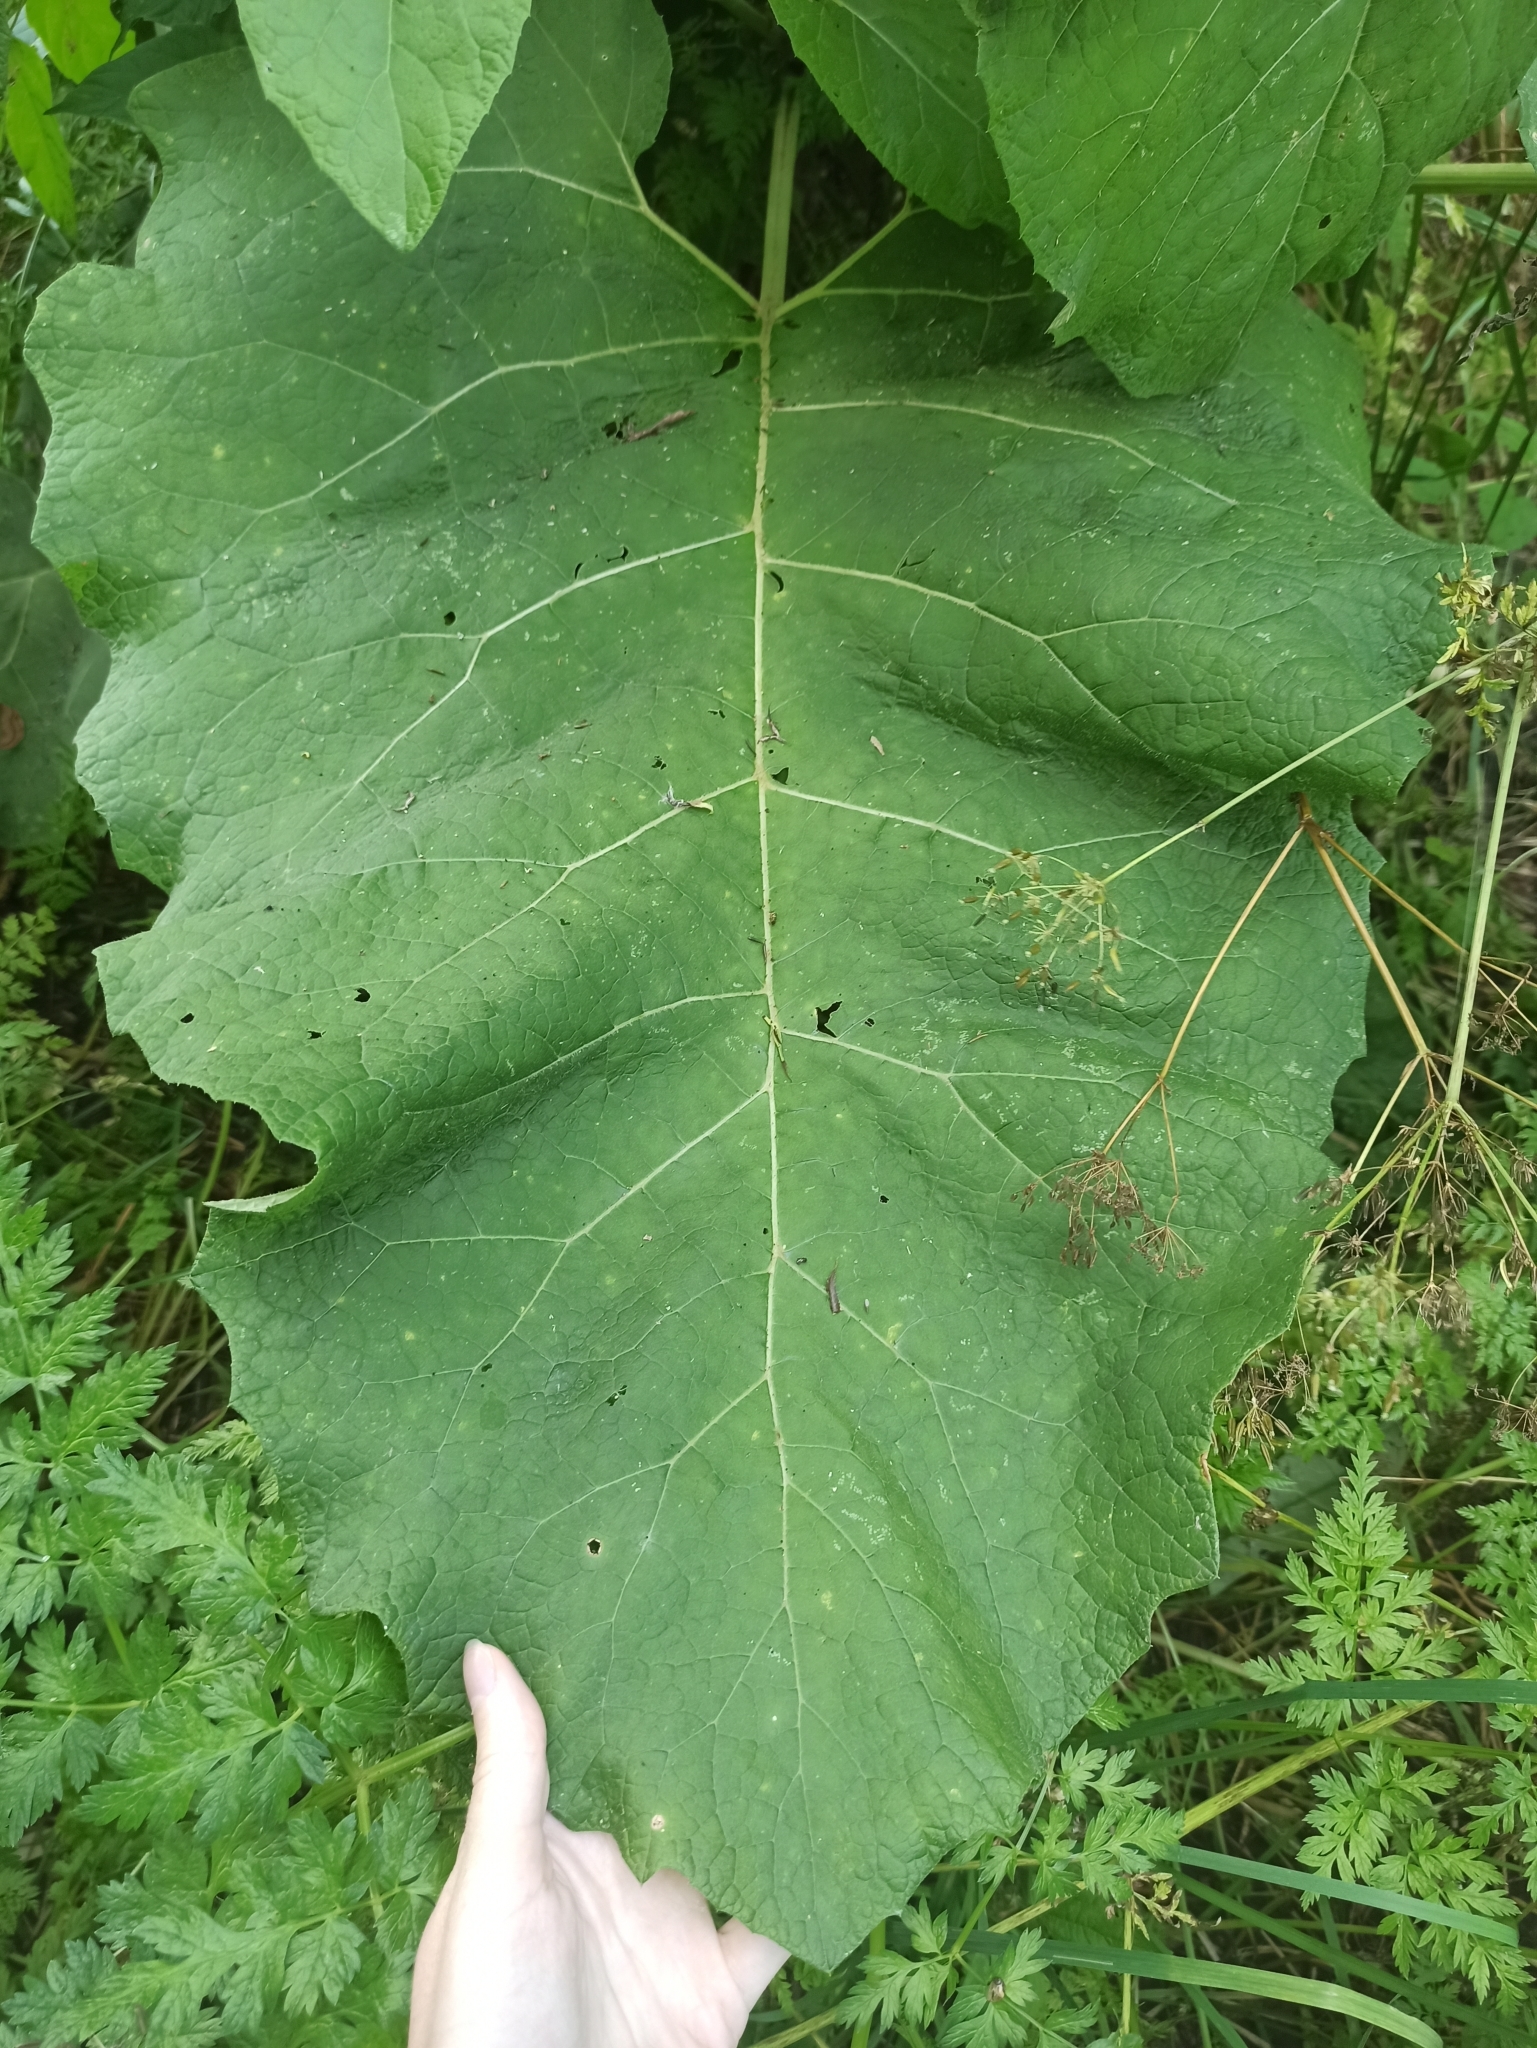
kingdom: Plantae
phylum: Tracheophyta
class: Magnoliopsida
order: Asterales
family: Asteraceae
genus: Arctium
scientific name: Arctium tomentosum
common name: Woolly burdock
